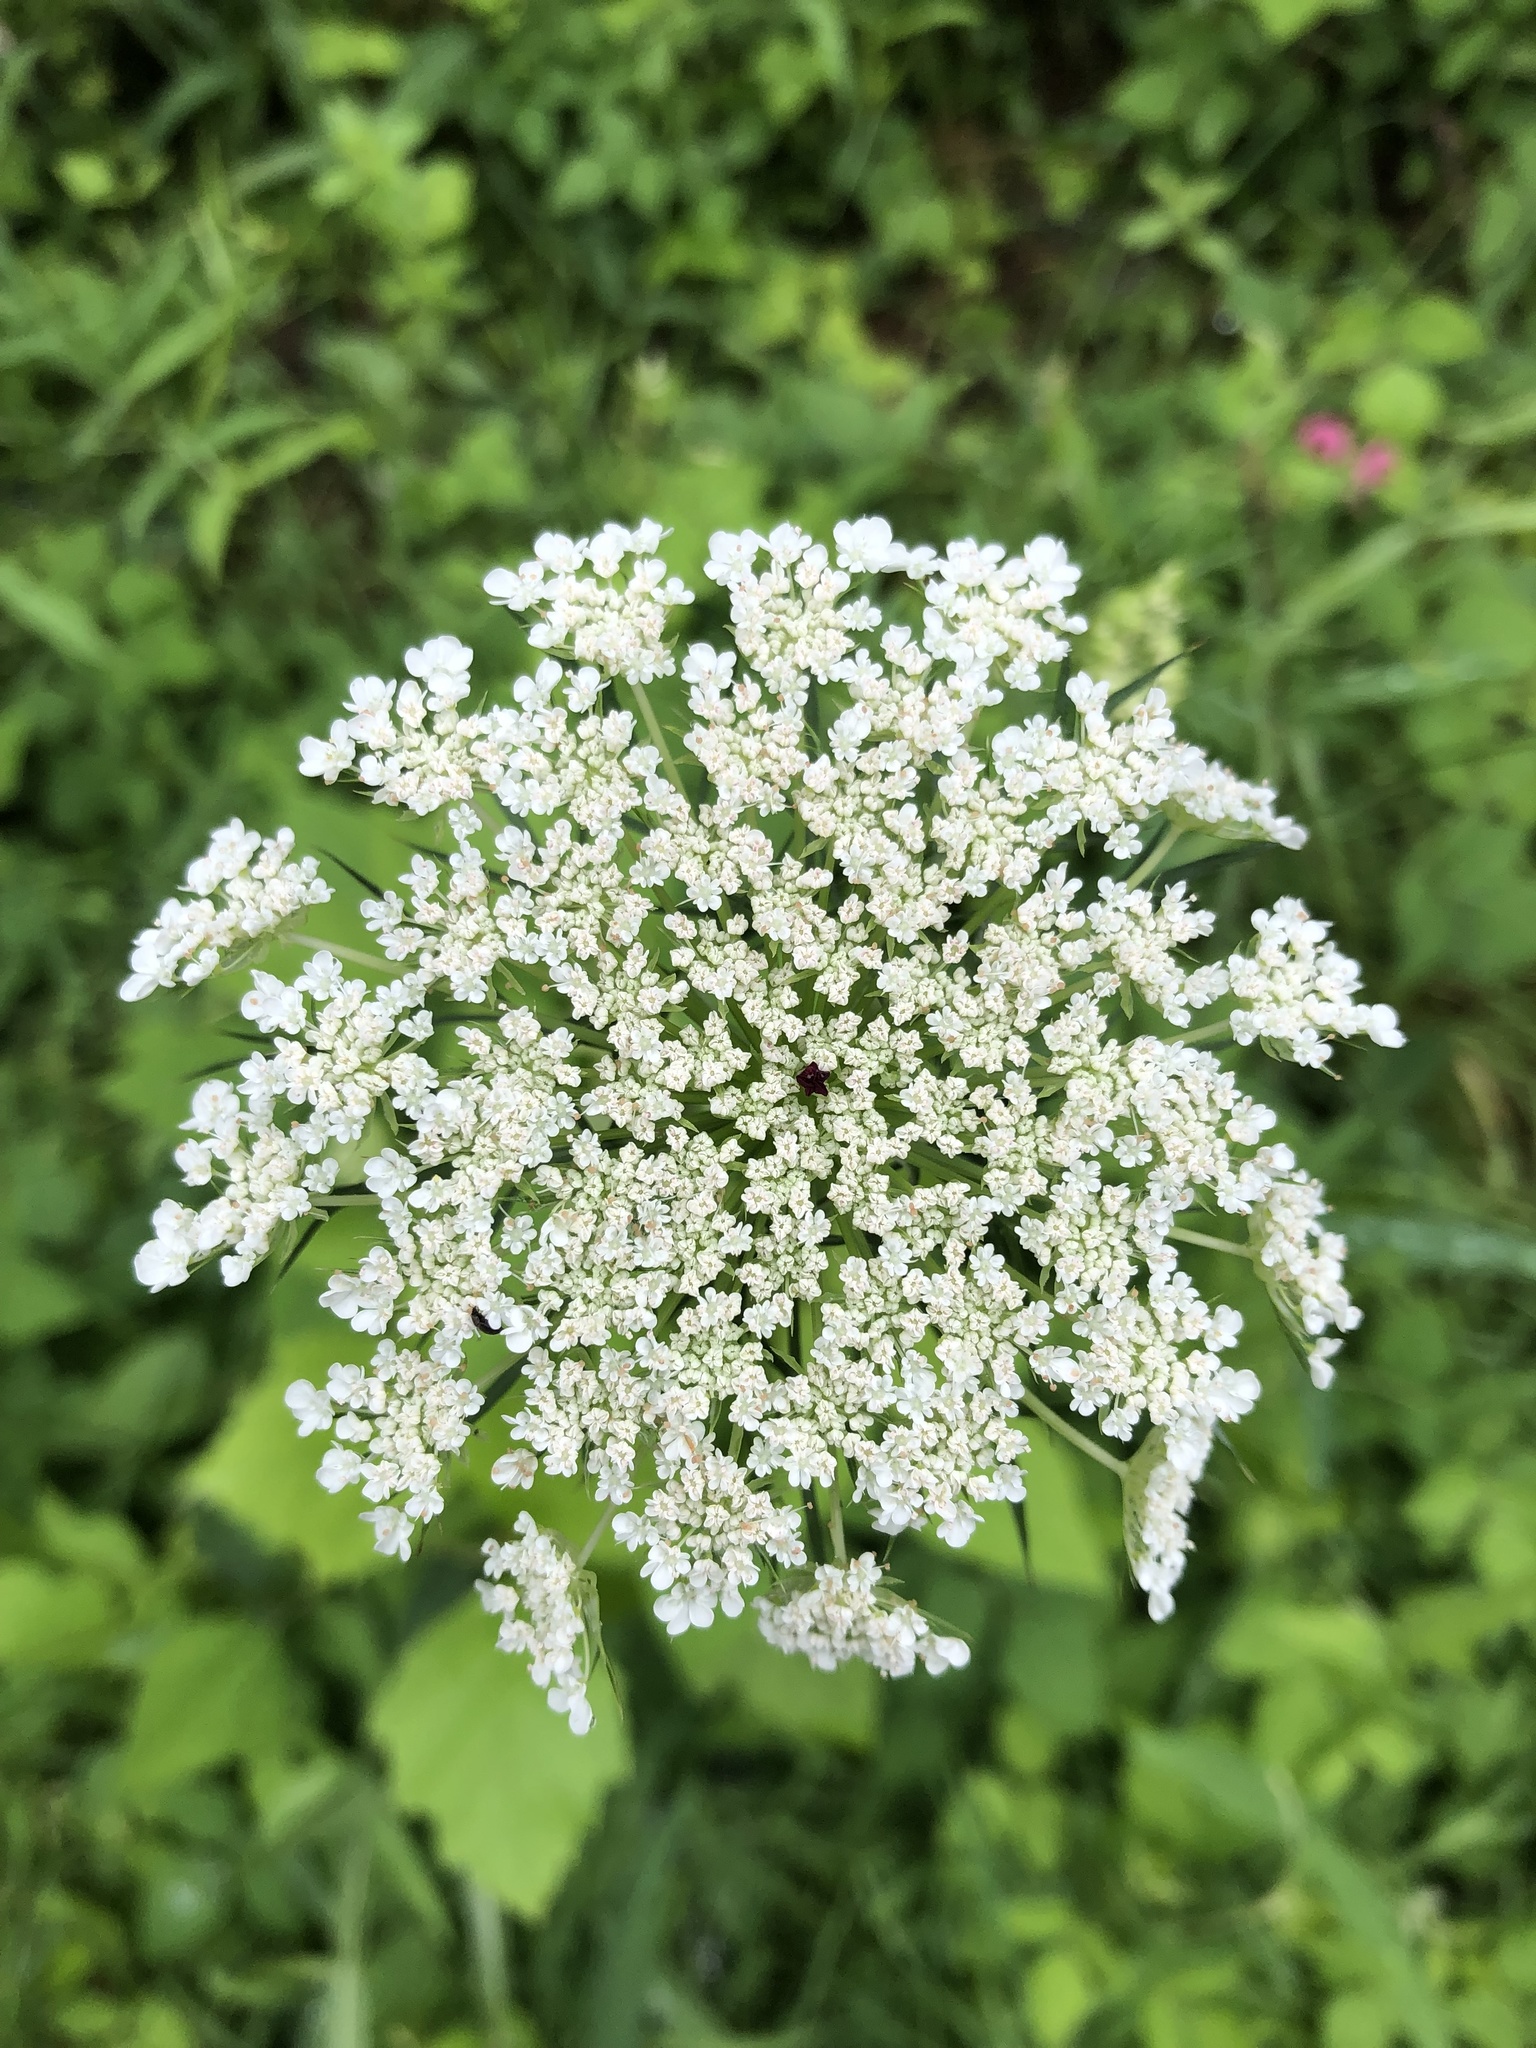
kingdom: Plantae
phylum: Tracheophyta
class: Magnoliopsida
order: Apiales
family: Apiaceae
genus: Daucus
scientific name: Daucus carota
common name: Wild carrot
